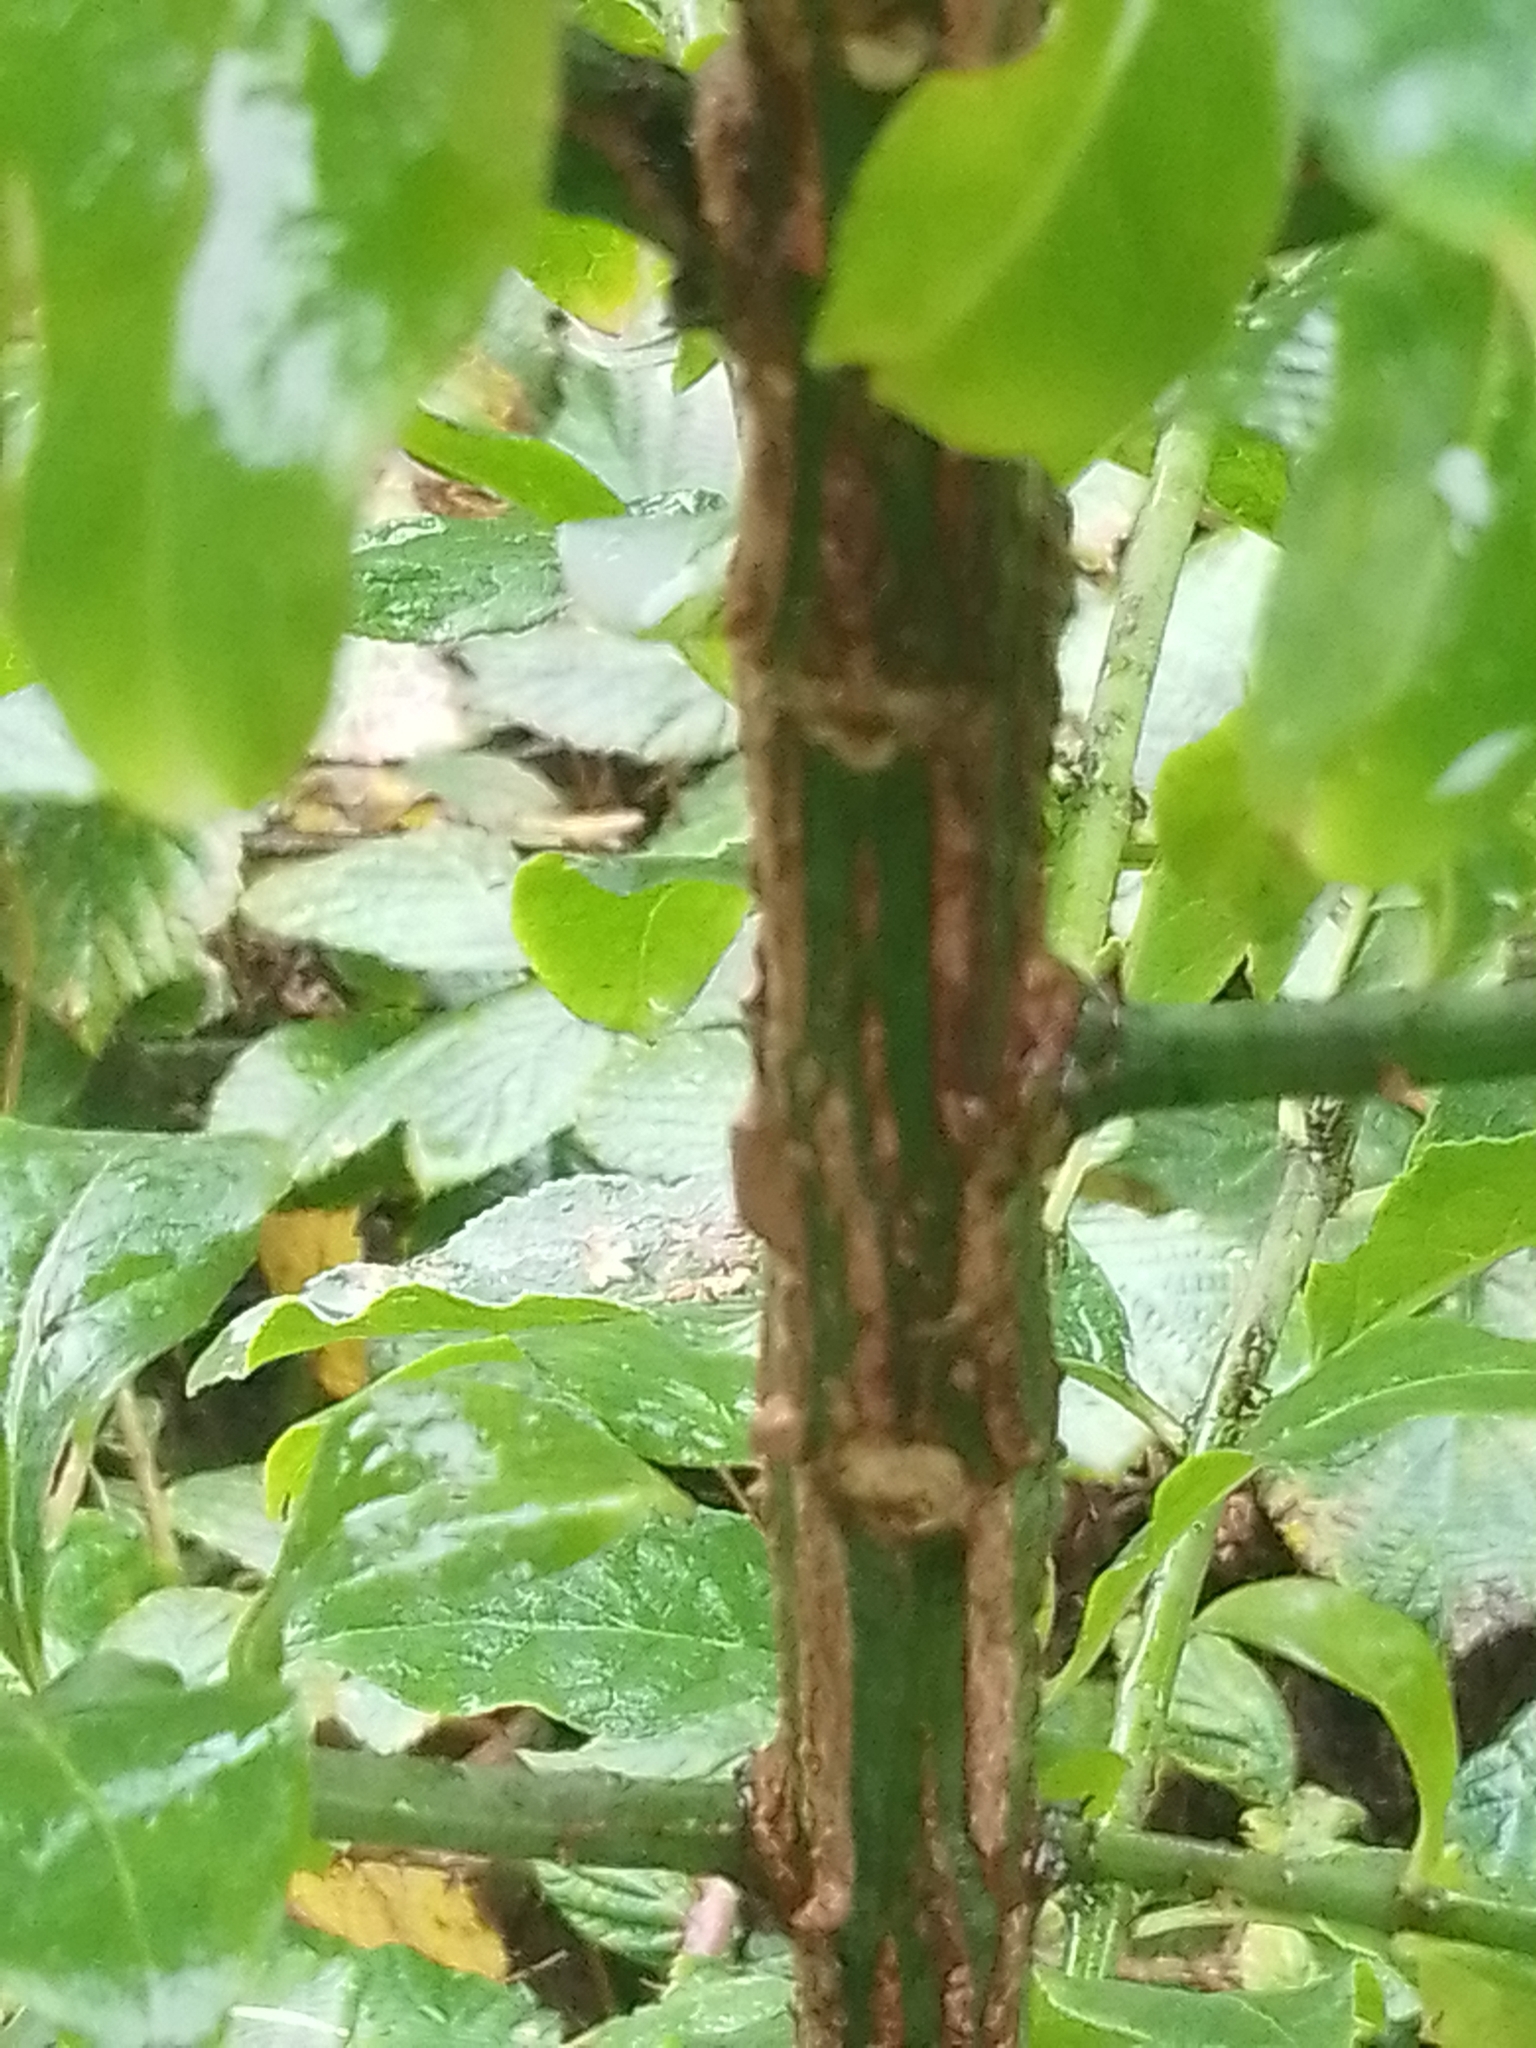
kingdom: Plantae
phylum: Tracheophyta
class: Magnoliopsida
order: Celastrales
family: Celastraceae
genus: Euonymus
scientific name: Euonymus europaeus
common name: Spindle
